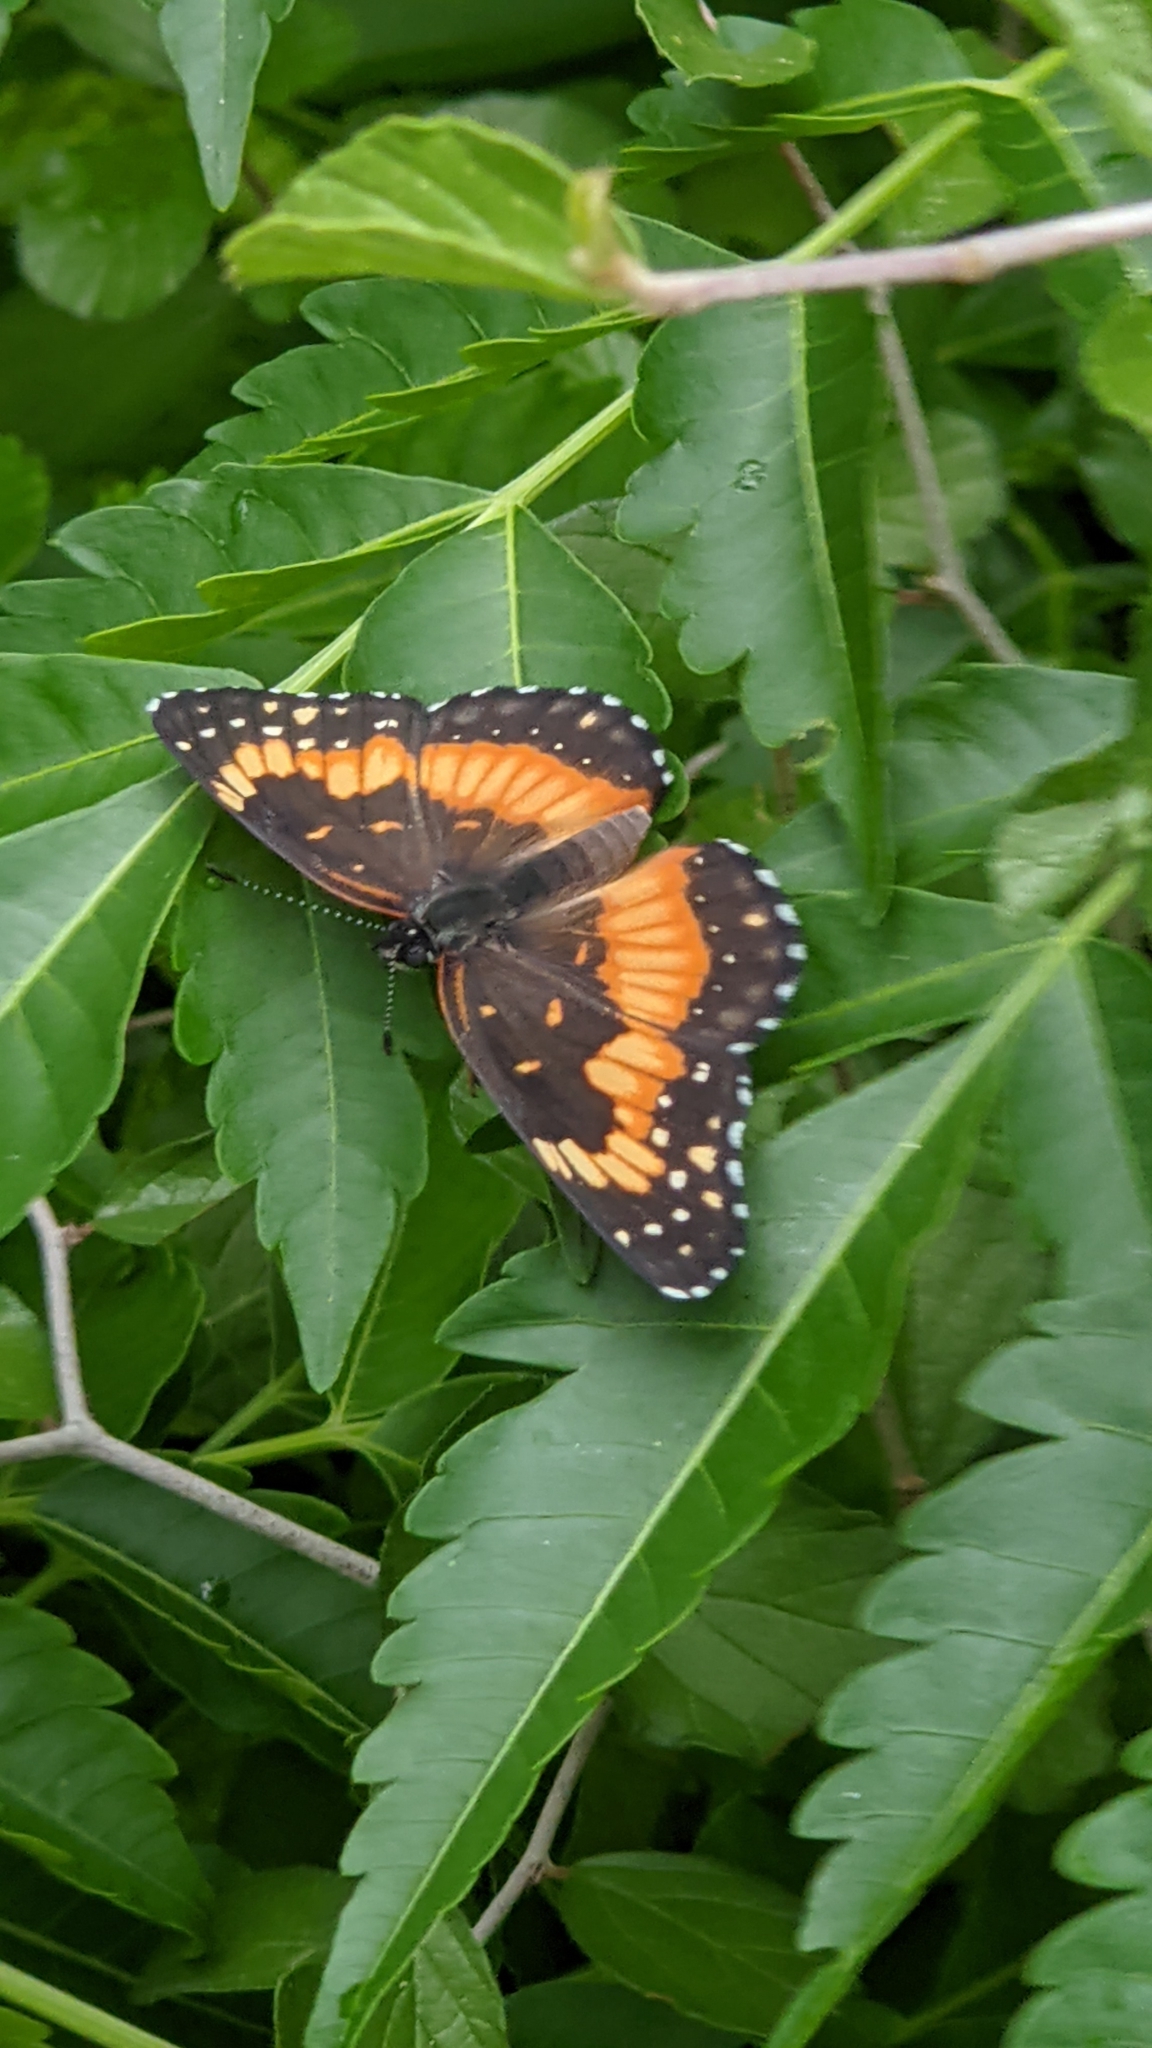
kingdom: Animalia
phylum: Arthropoda
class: Insecta
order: Lepidoptera
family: Nymphalidae
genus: Chlosyne
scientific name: Chlosyne lacinia
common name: Bordered patch
